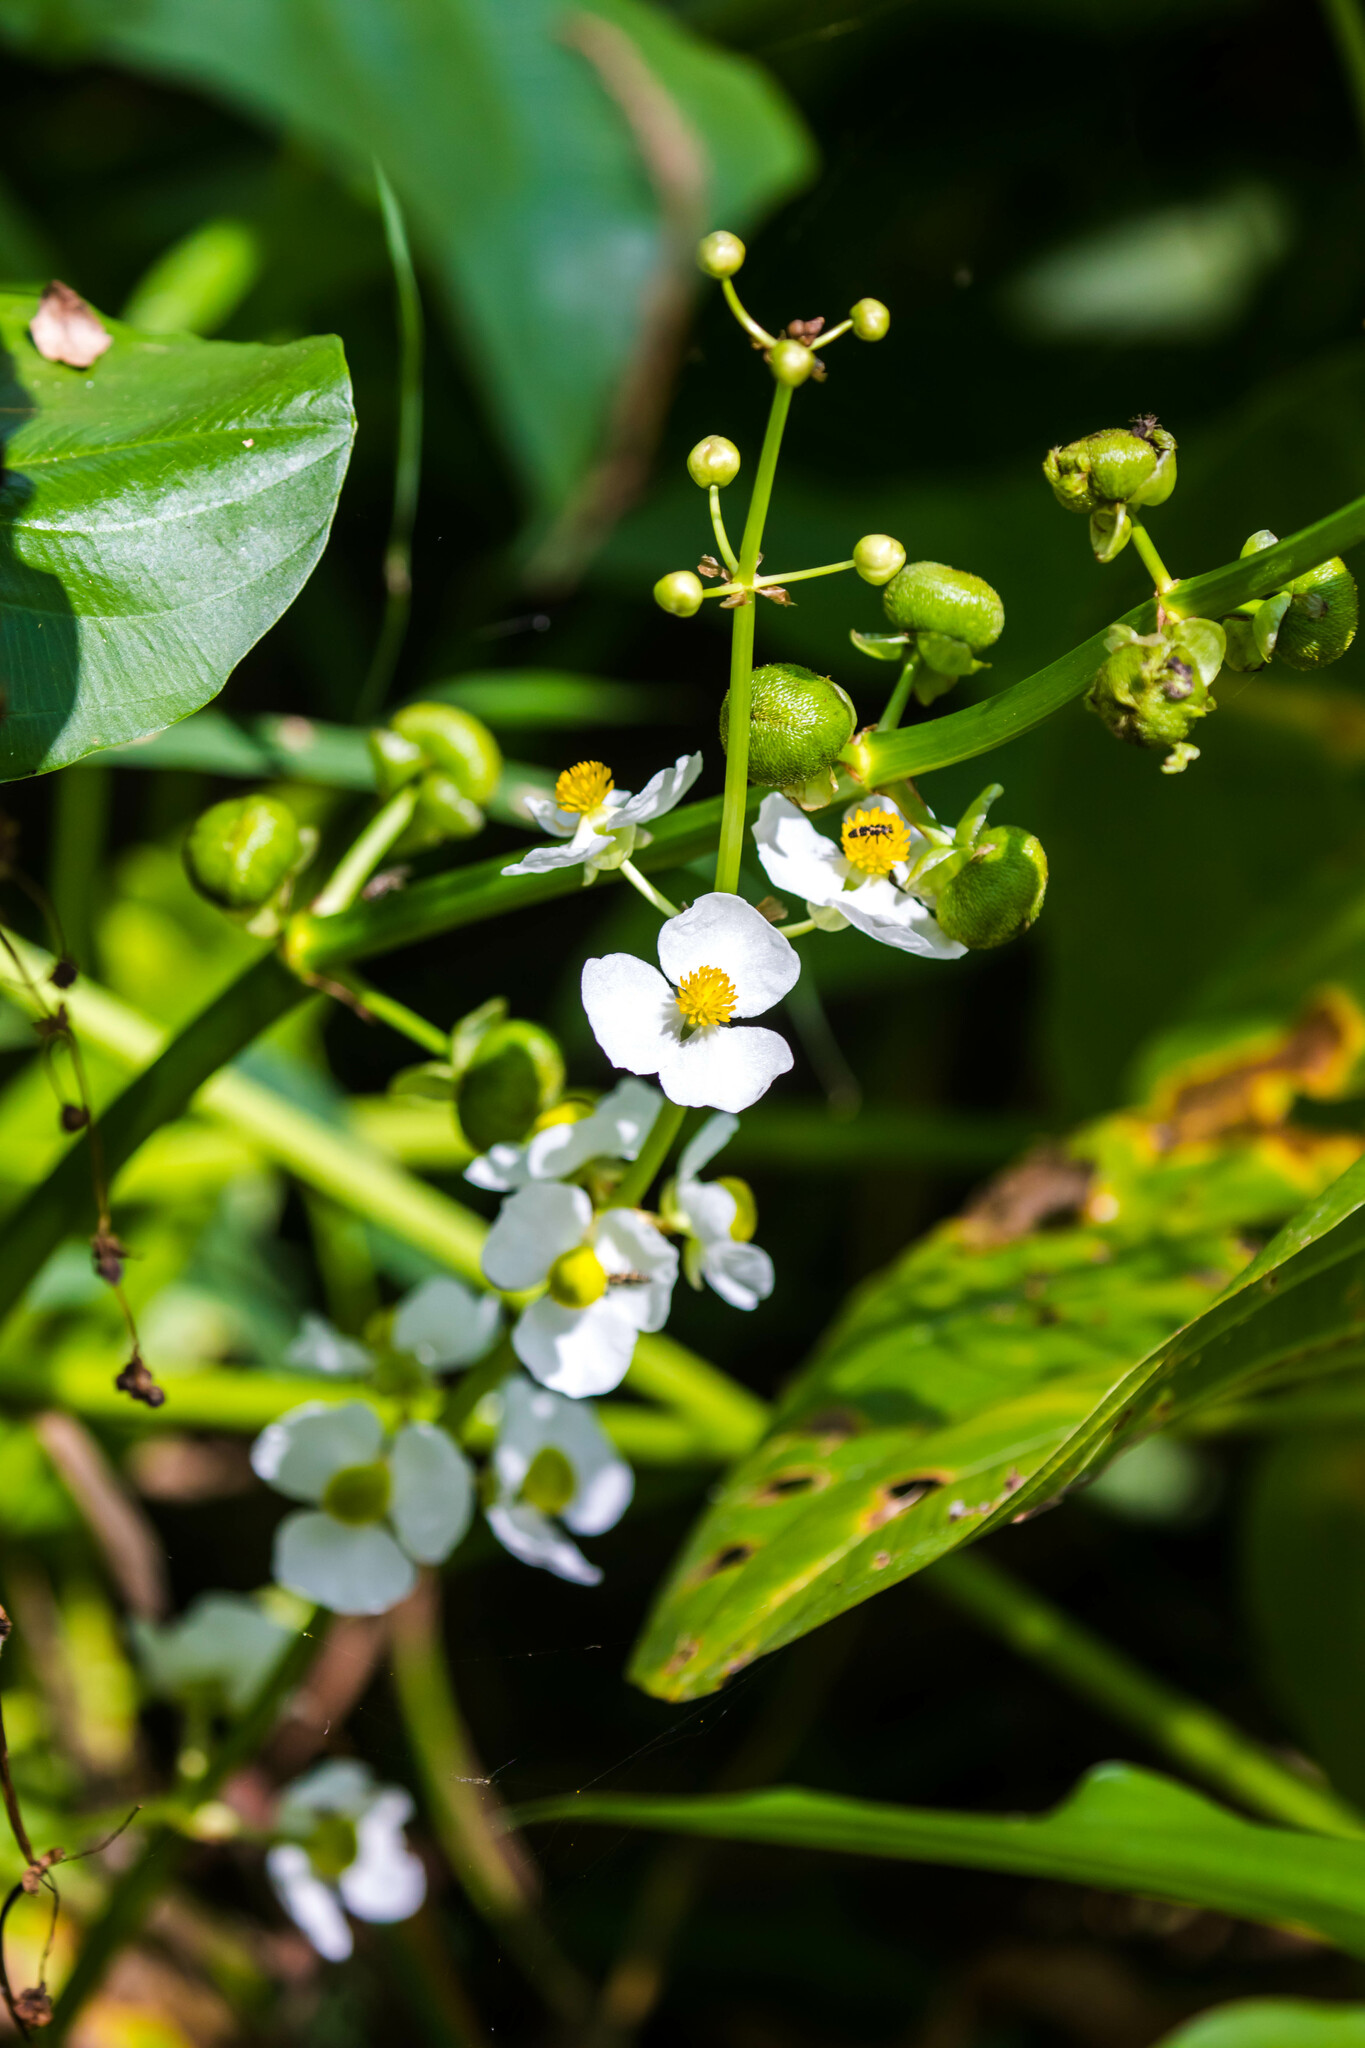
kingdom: Plantae
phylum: Tracheophyta
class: Liliopsida
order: Alismatales
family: Alismataceae
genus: Sagittaria
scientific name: Sagittaria latifolia
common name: Duck-potato
